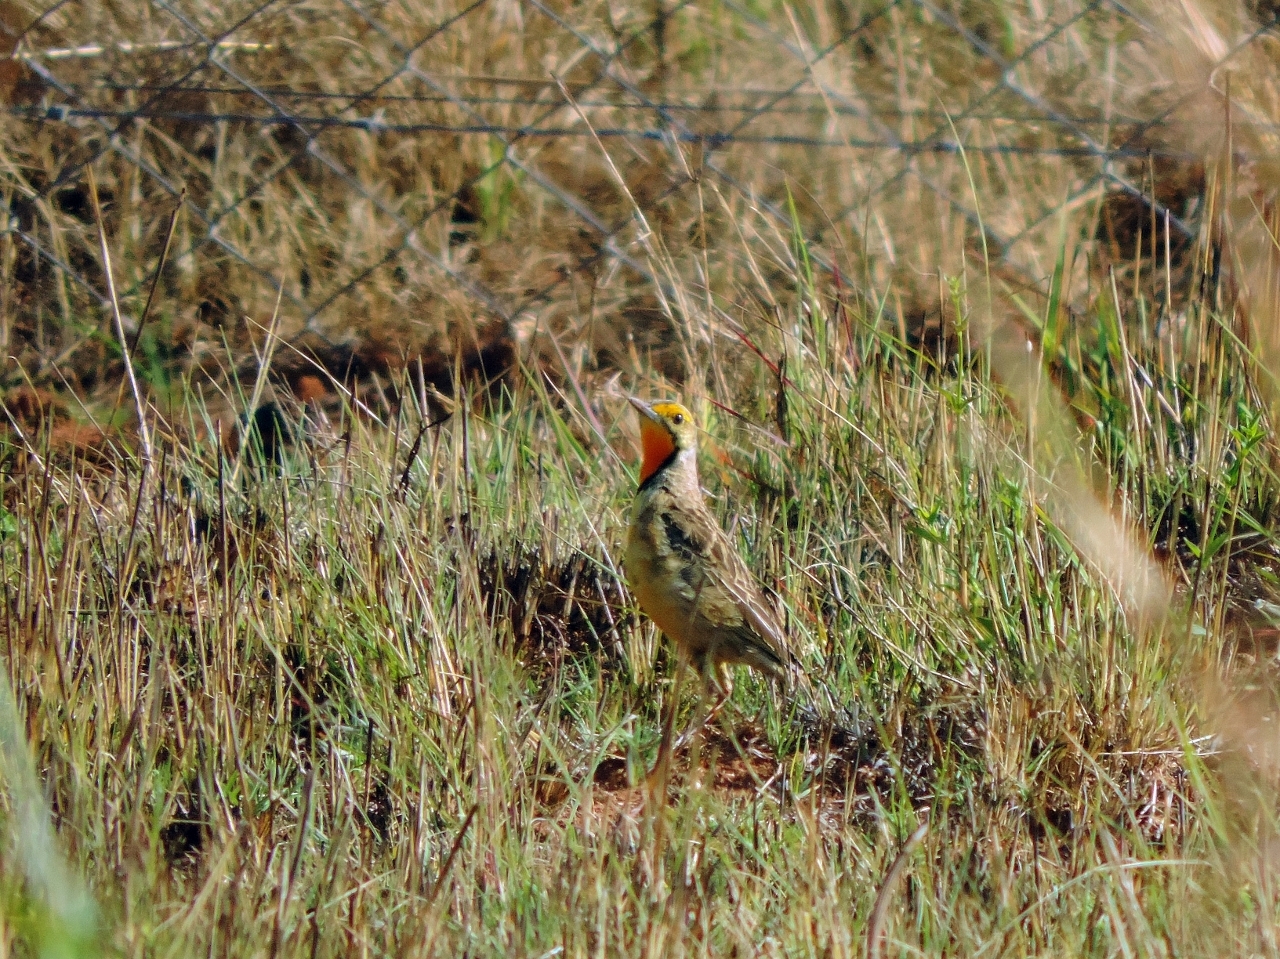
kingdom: Animalia
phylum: Chordata
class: Aves
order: Passeriformes
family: Motacillidae
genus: Macronyx
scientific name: Macronyx capensis
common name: Cape longclaw
